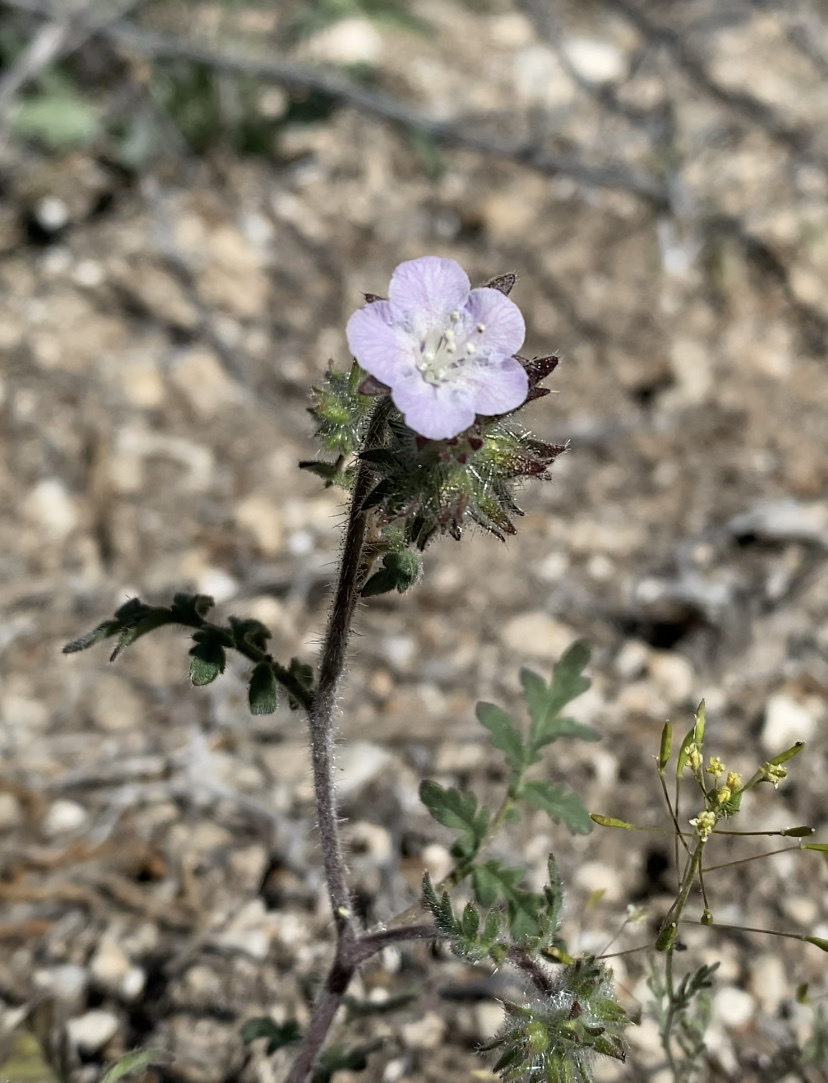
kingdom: Plantae
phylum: Tracheophyta
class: Magnoliopsida
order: Boraginales
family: Hydrophyllaceae
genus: Phacelia
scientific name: Phacelia vallis-mortae
